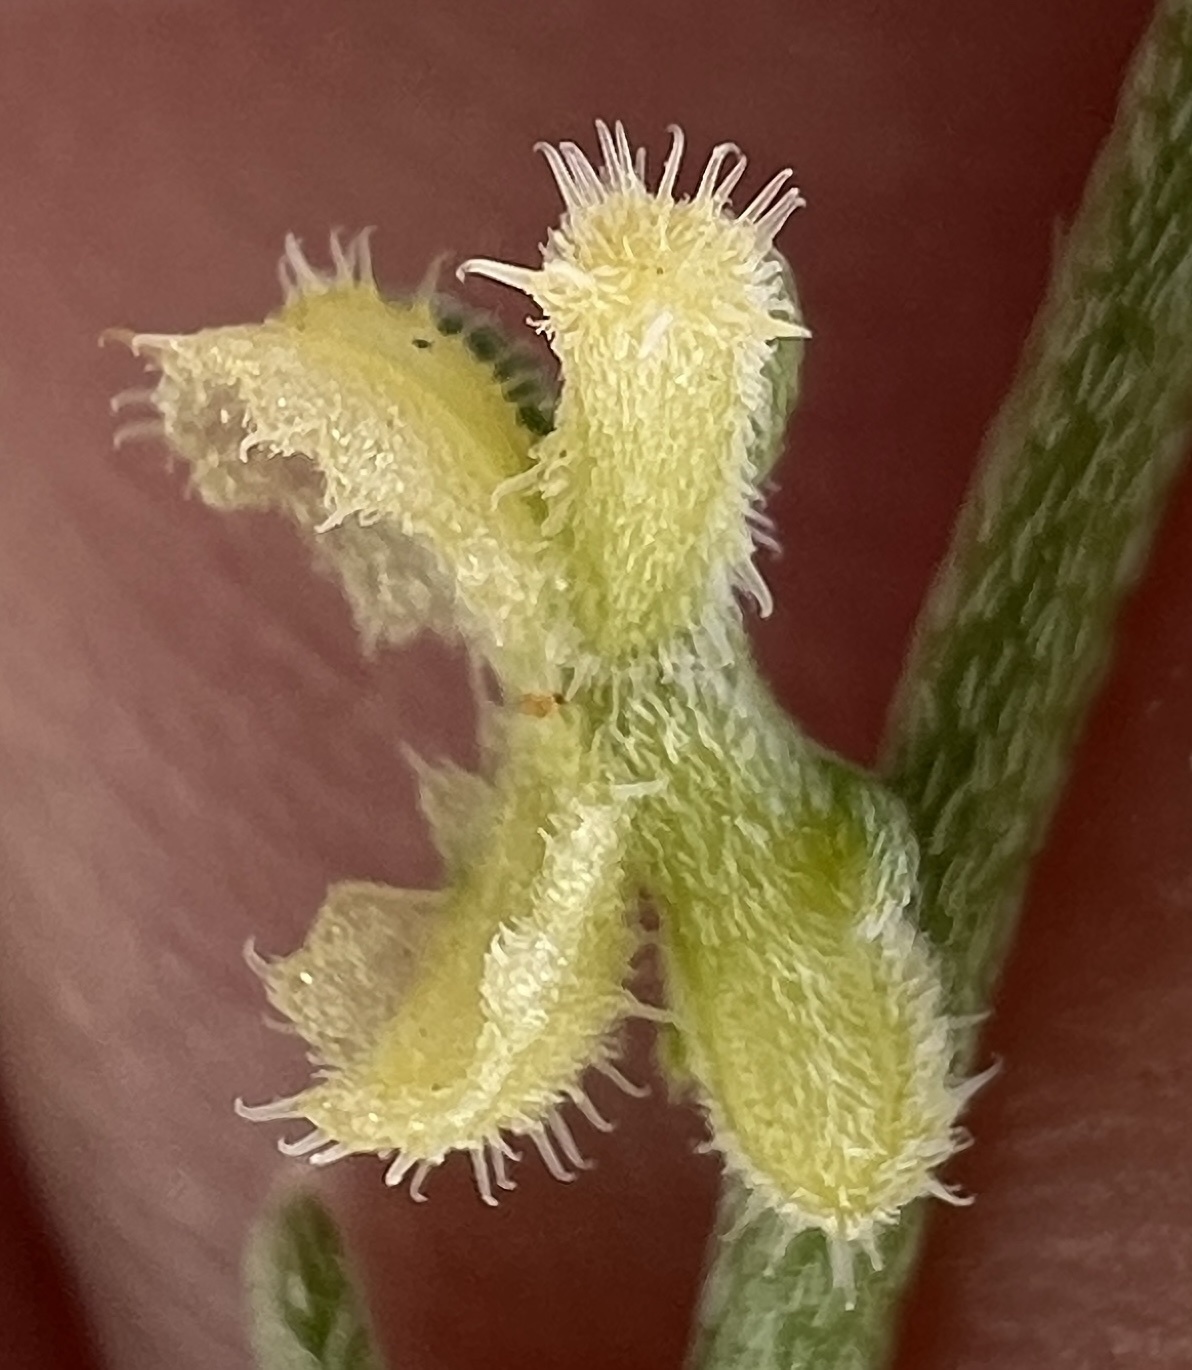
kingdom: Plantae
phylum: Tracheophyta
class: Magnoliopsida
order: Boraginales
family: Boraginaceae
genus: Pectocarya
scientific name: Pectocarya heterocarpa
